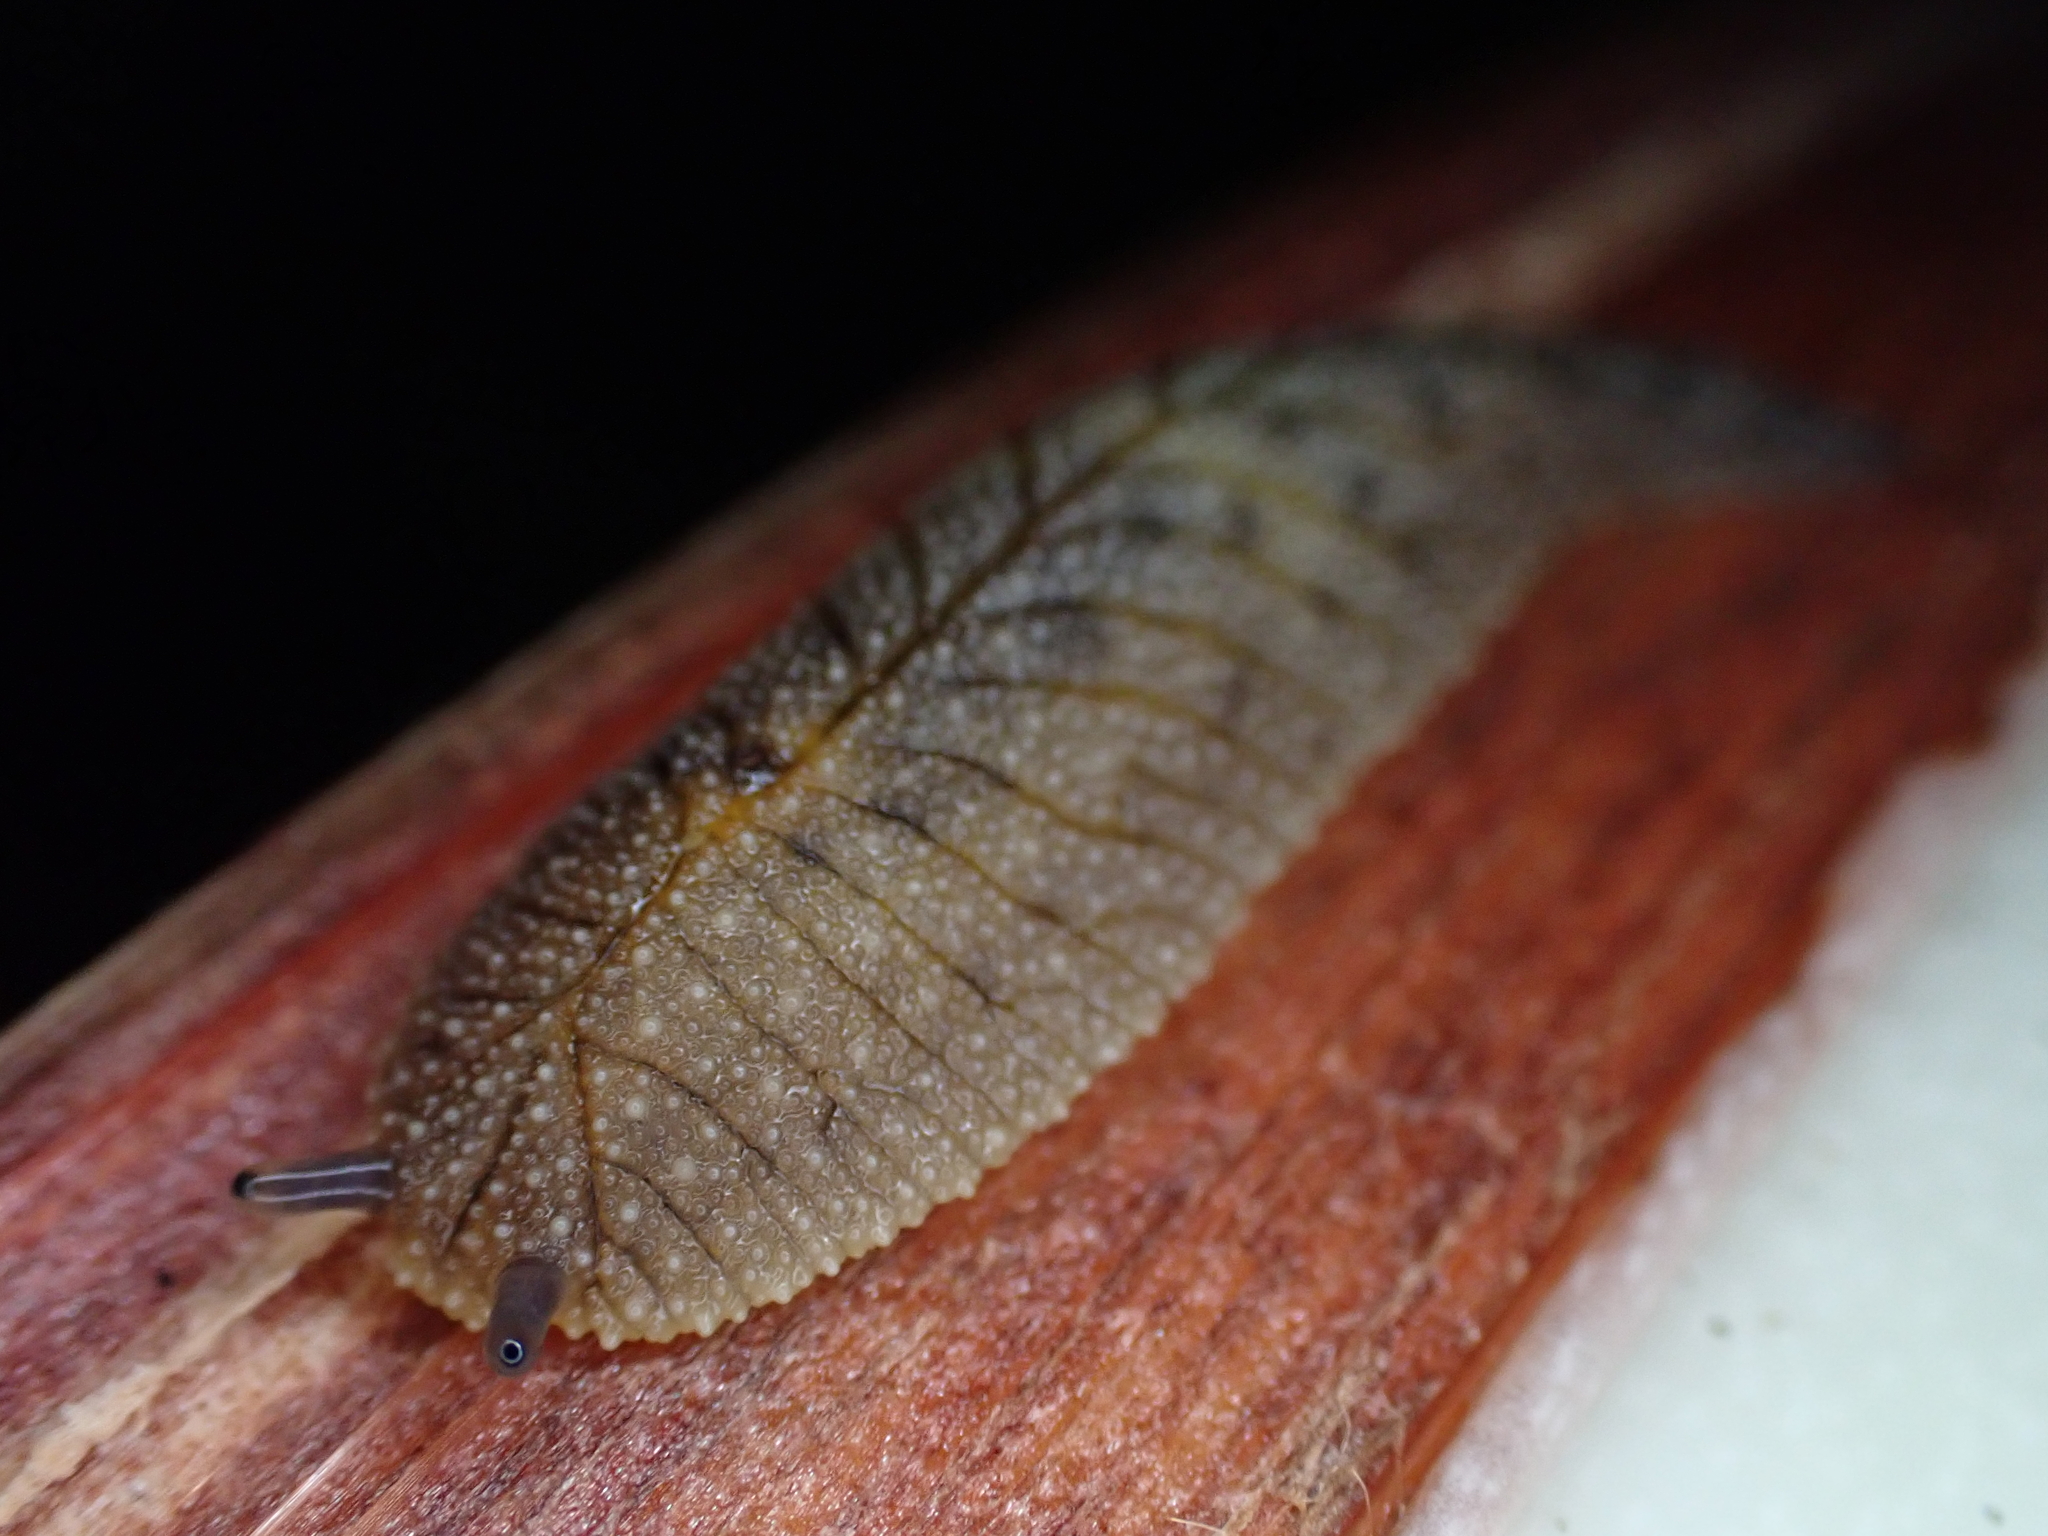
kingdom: Animalia
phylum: Mollusca
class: Gastropoda
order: Stylommatophora
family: Athoracophoridae
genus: Athoracophorus
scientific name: Athoracophorus
